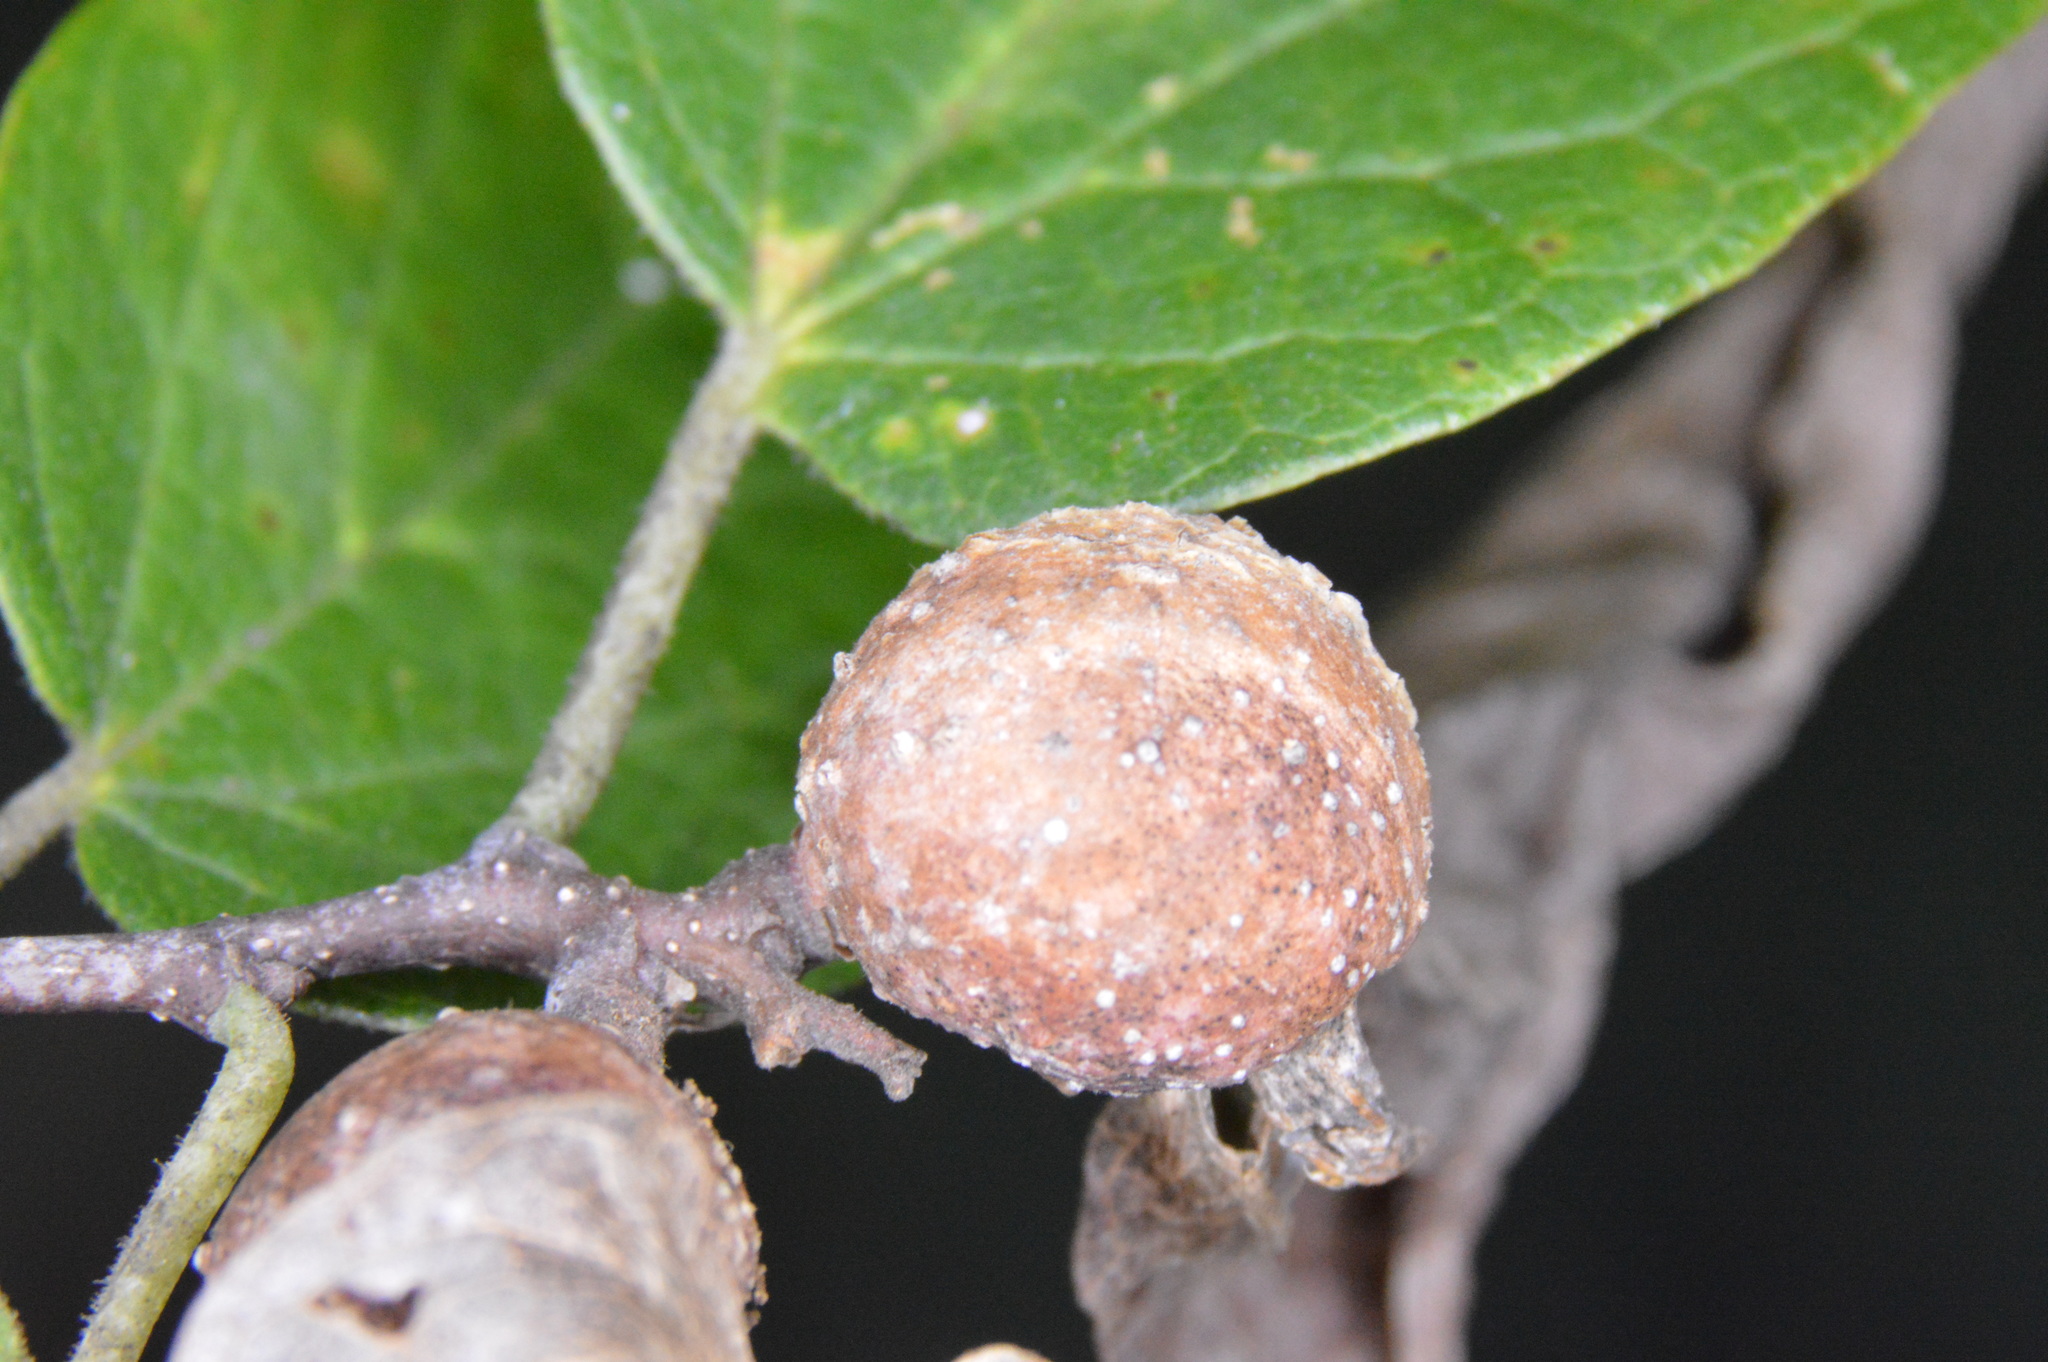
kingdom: Animalia
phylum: Arthropoda
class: Insecta
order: Hemiptera
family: Aphalaridae
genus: Pachypsylla
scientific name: Pachypsylla venusta
